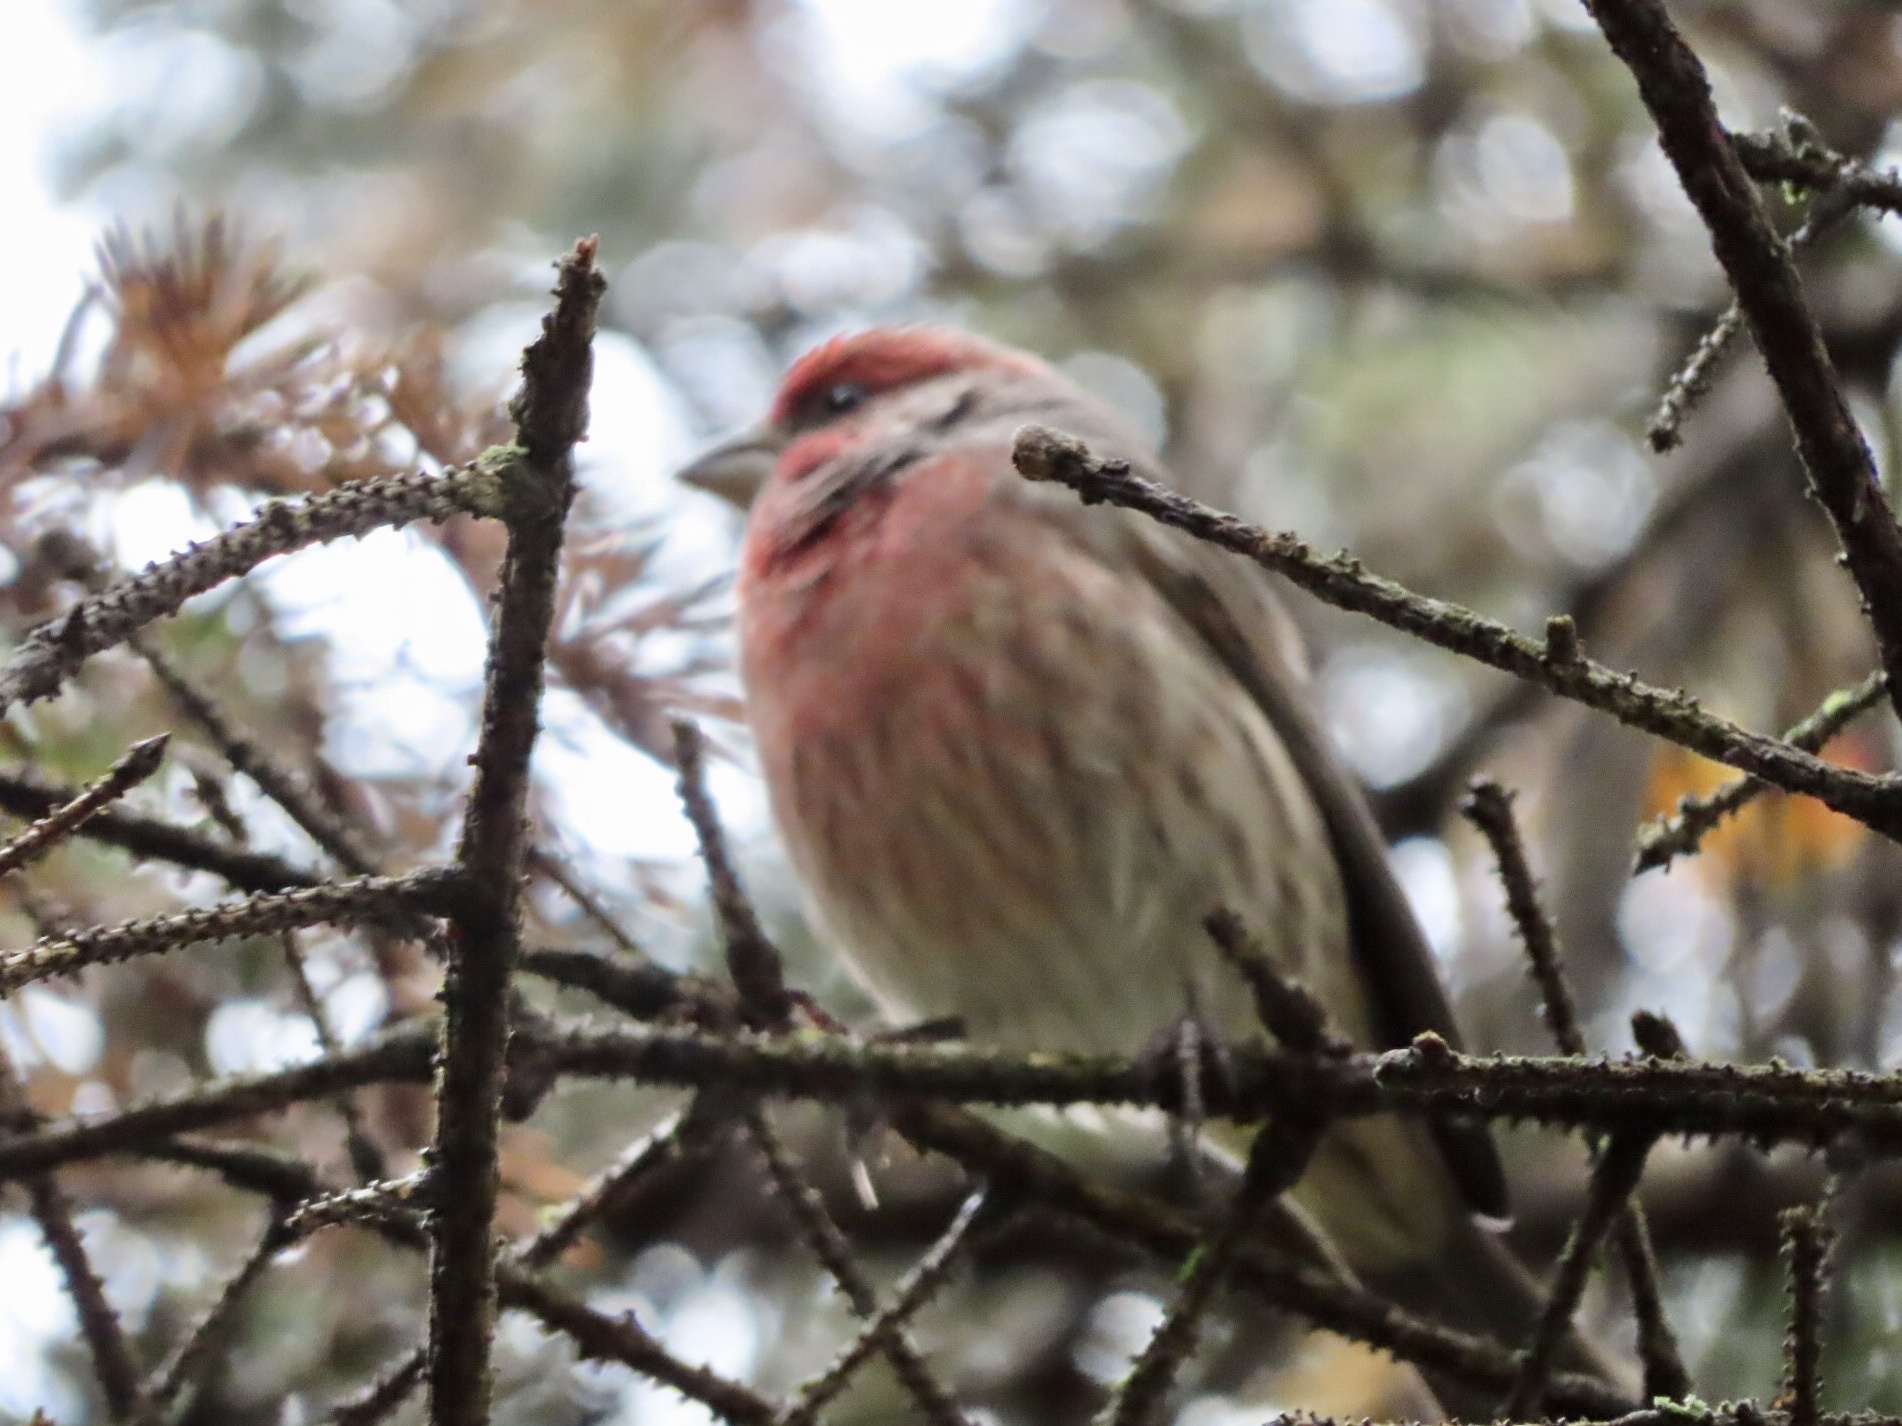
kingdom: Animalia
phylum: Chordata
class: Aves
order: Passeriformes
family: Fringillidae
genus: Haemorhous
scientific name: Haemorhous mexicanus
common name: House finch
